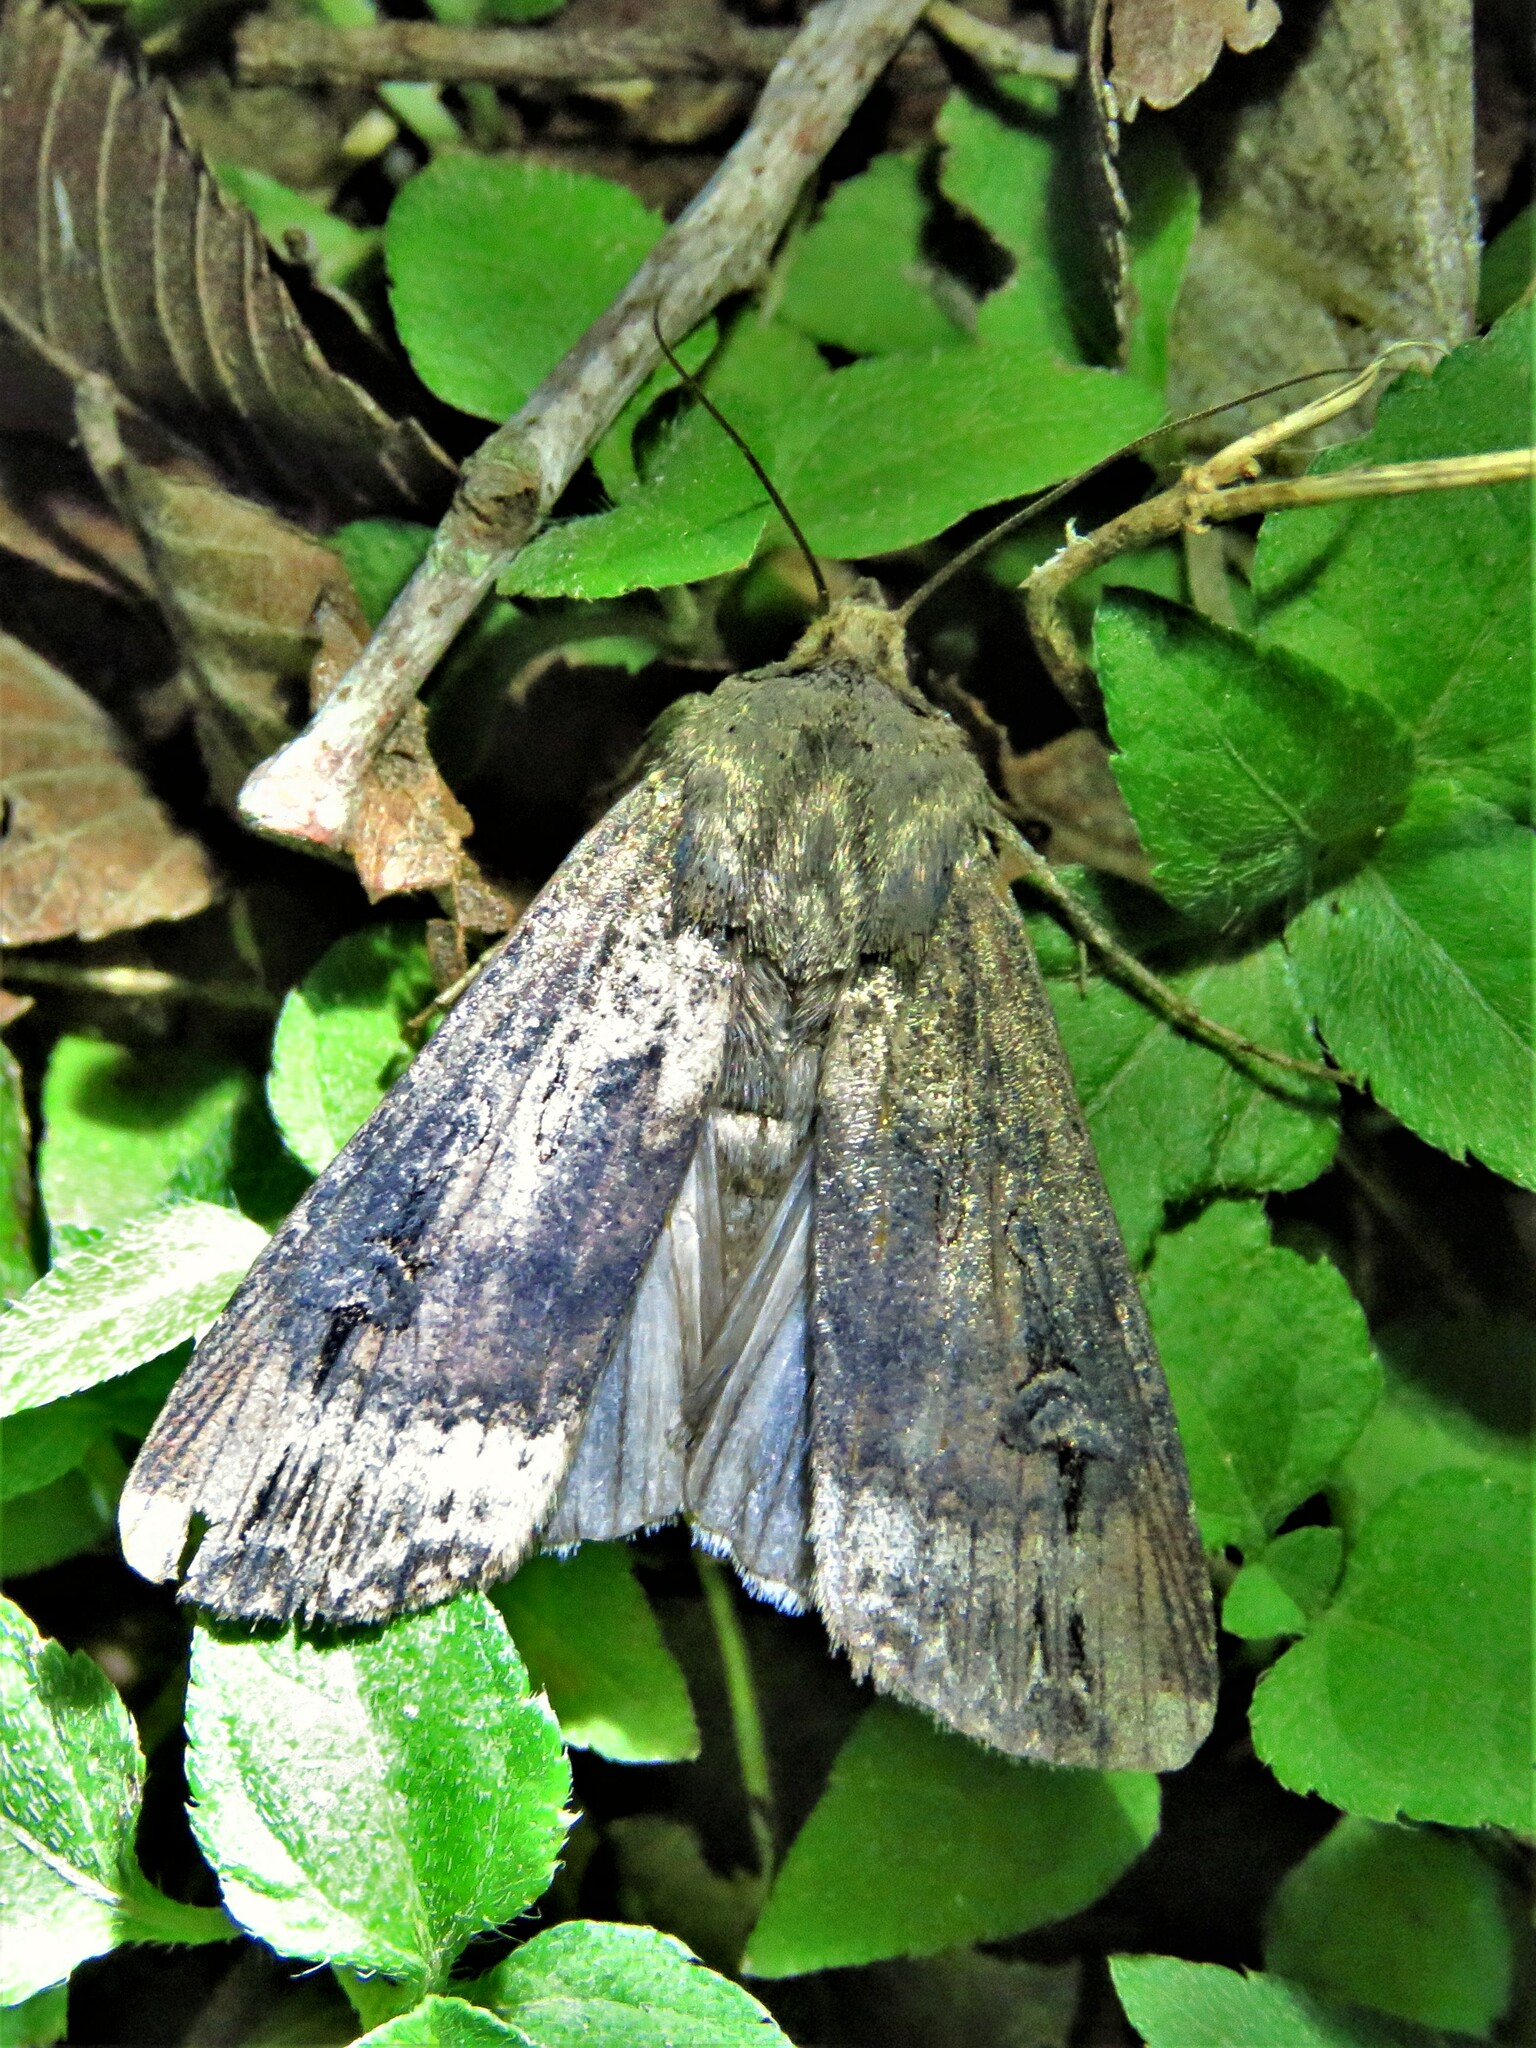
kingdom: Animalia
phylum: Arthropoda
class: Insecta
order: Lepidoptera
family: Noctuidae
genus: Agrotis
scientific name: Agrotis ipsilon
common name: Dark sword-grass
